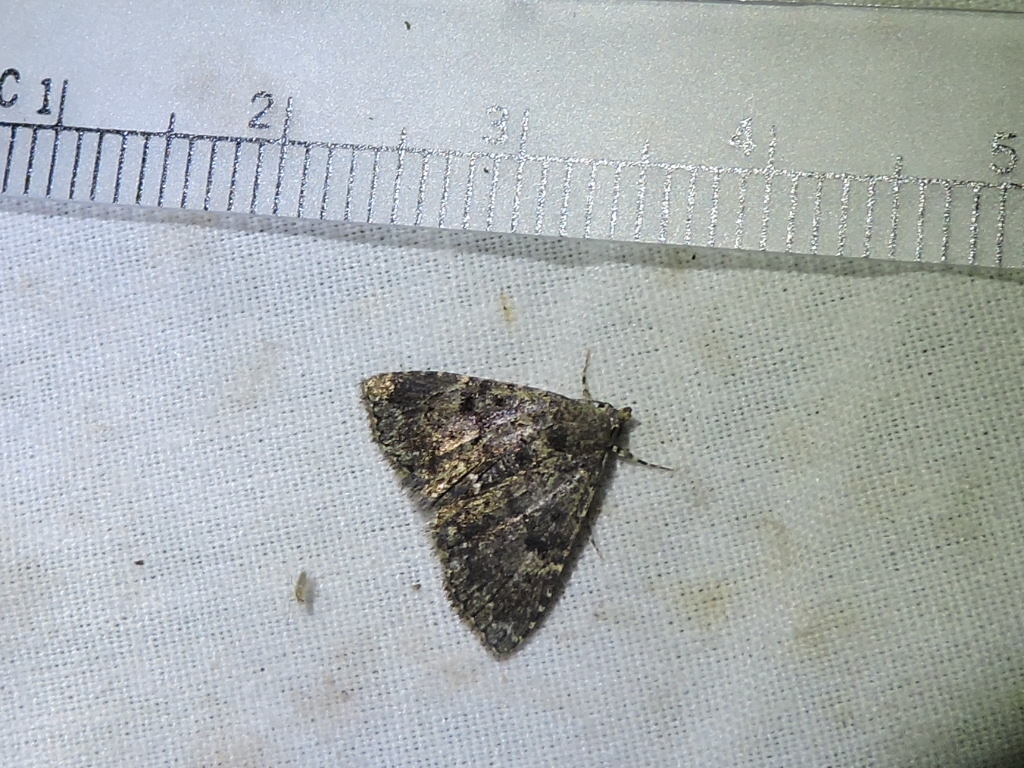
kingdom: Animalia
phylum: Arthropoda
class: Insecta
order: Lepidoptera
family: Erebidae
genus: Metalectra
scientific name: Metalectra miserulata
